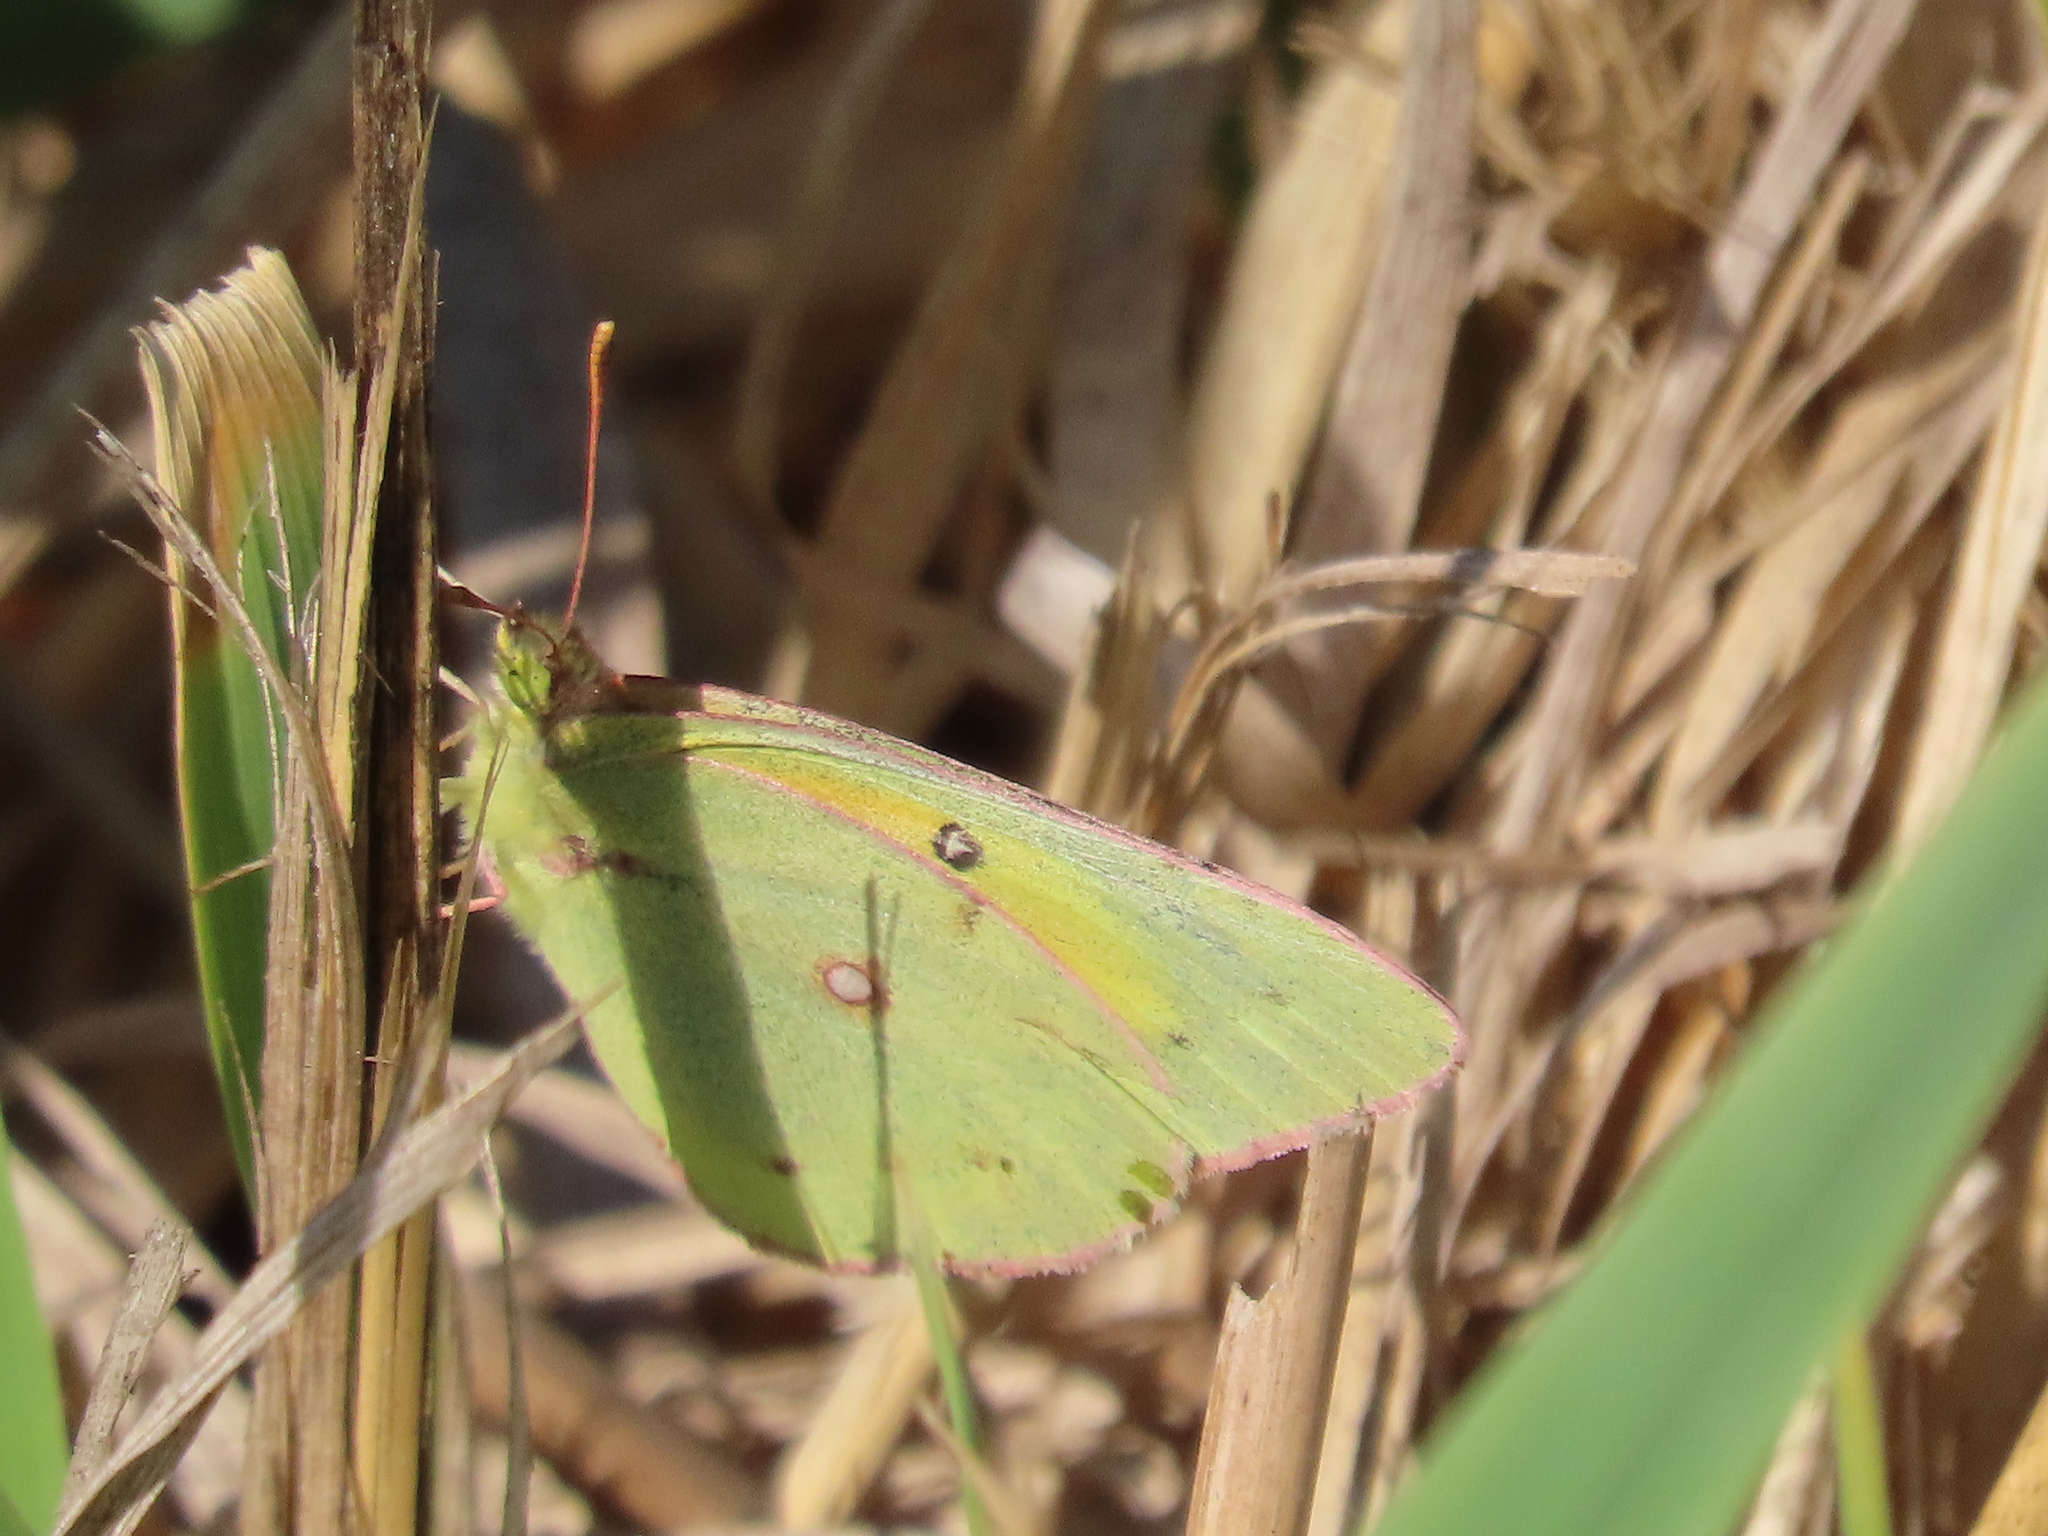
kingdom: Animalia
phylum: Arthropoda
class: Insecta
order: Lepidoptera
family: Pieridae
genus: Colias
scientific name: Colias eurytheme
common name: Alfalfa butterfly
